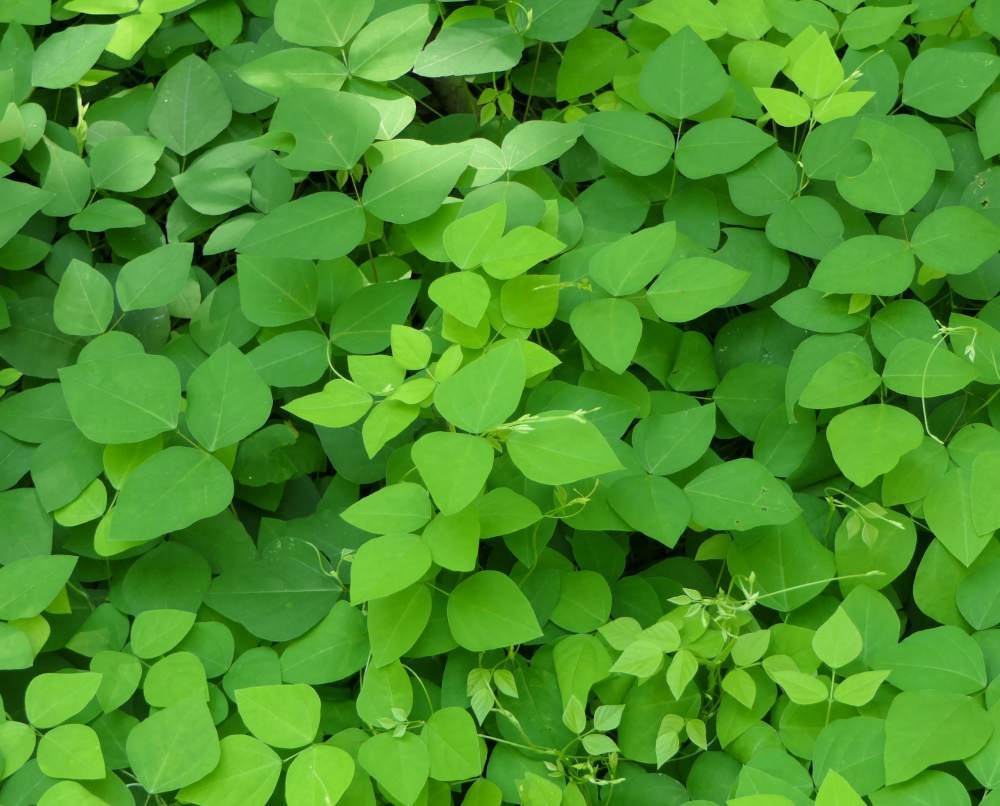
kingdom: Plantae
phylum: Tracheophyta
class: Magnoliopsida
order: Fabales
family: Fabaceae
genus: Amphicarpaea
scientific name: Amphicarpaea bracteata
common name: American hog peanut
